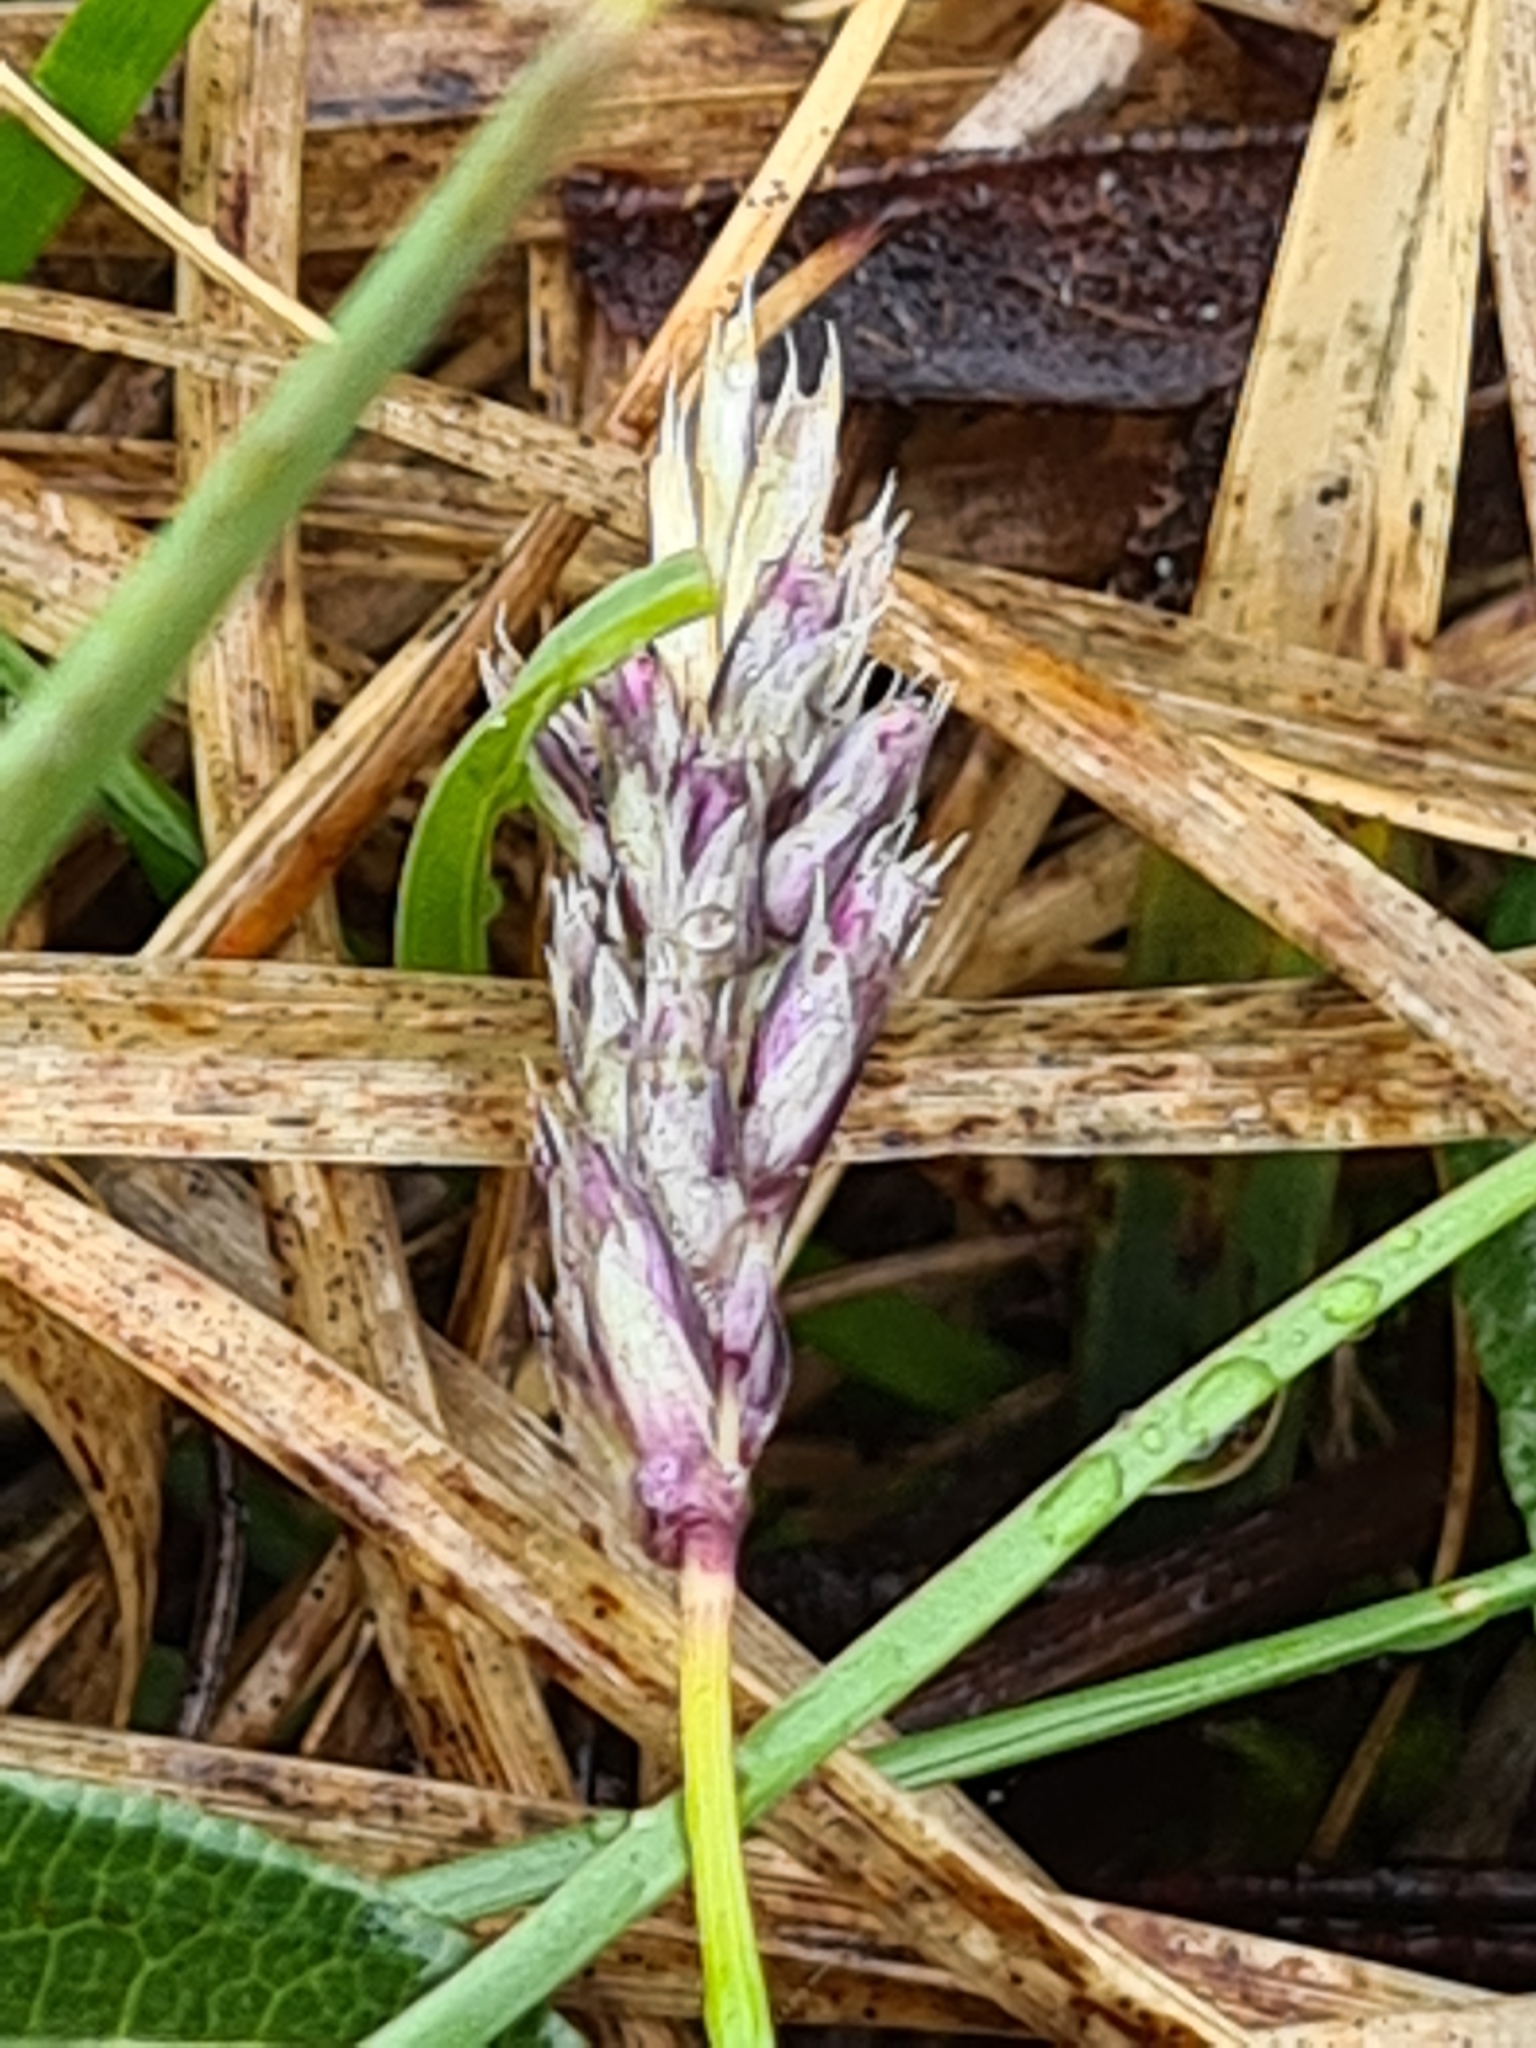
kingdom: Plantae
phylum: Tracheophyta
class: Liliopsida
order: Poales
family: Poaceae
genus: Sesleria
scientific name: Sesleria albicans
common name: Blue moor-grass
